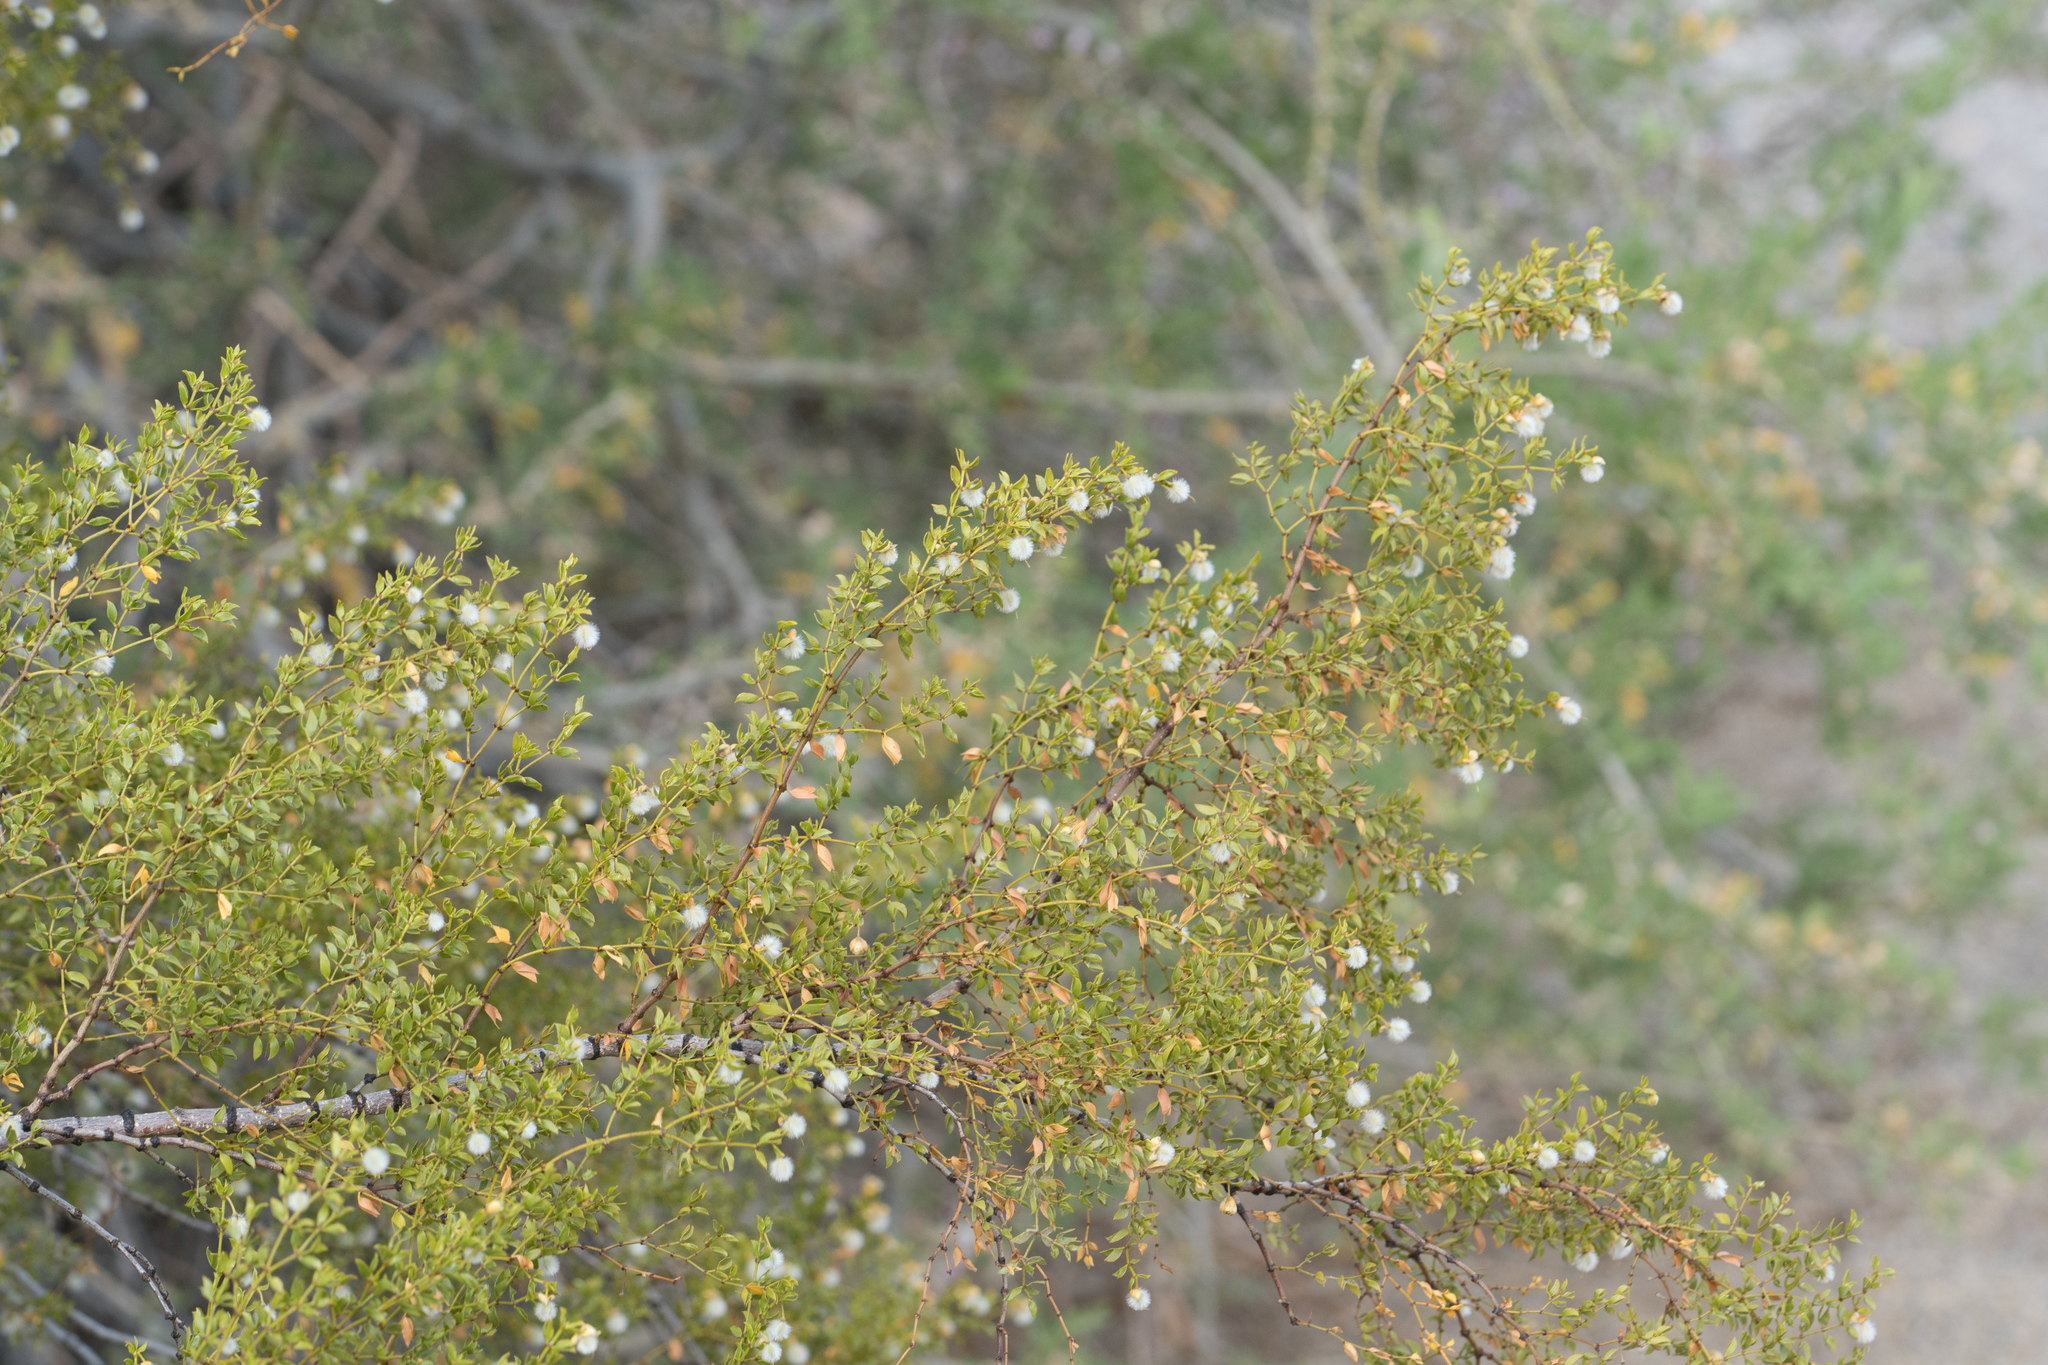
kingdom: Plantae
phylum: Tracheophyta
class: Magnoliopsida
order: Zygophyllales
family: Zygophyllaceae
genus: Larrea
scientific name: Larrea tridentata
